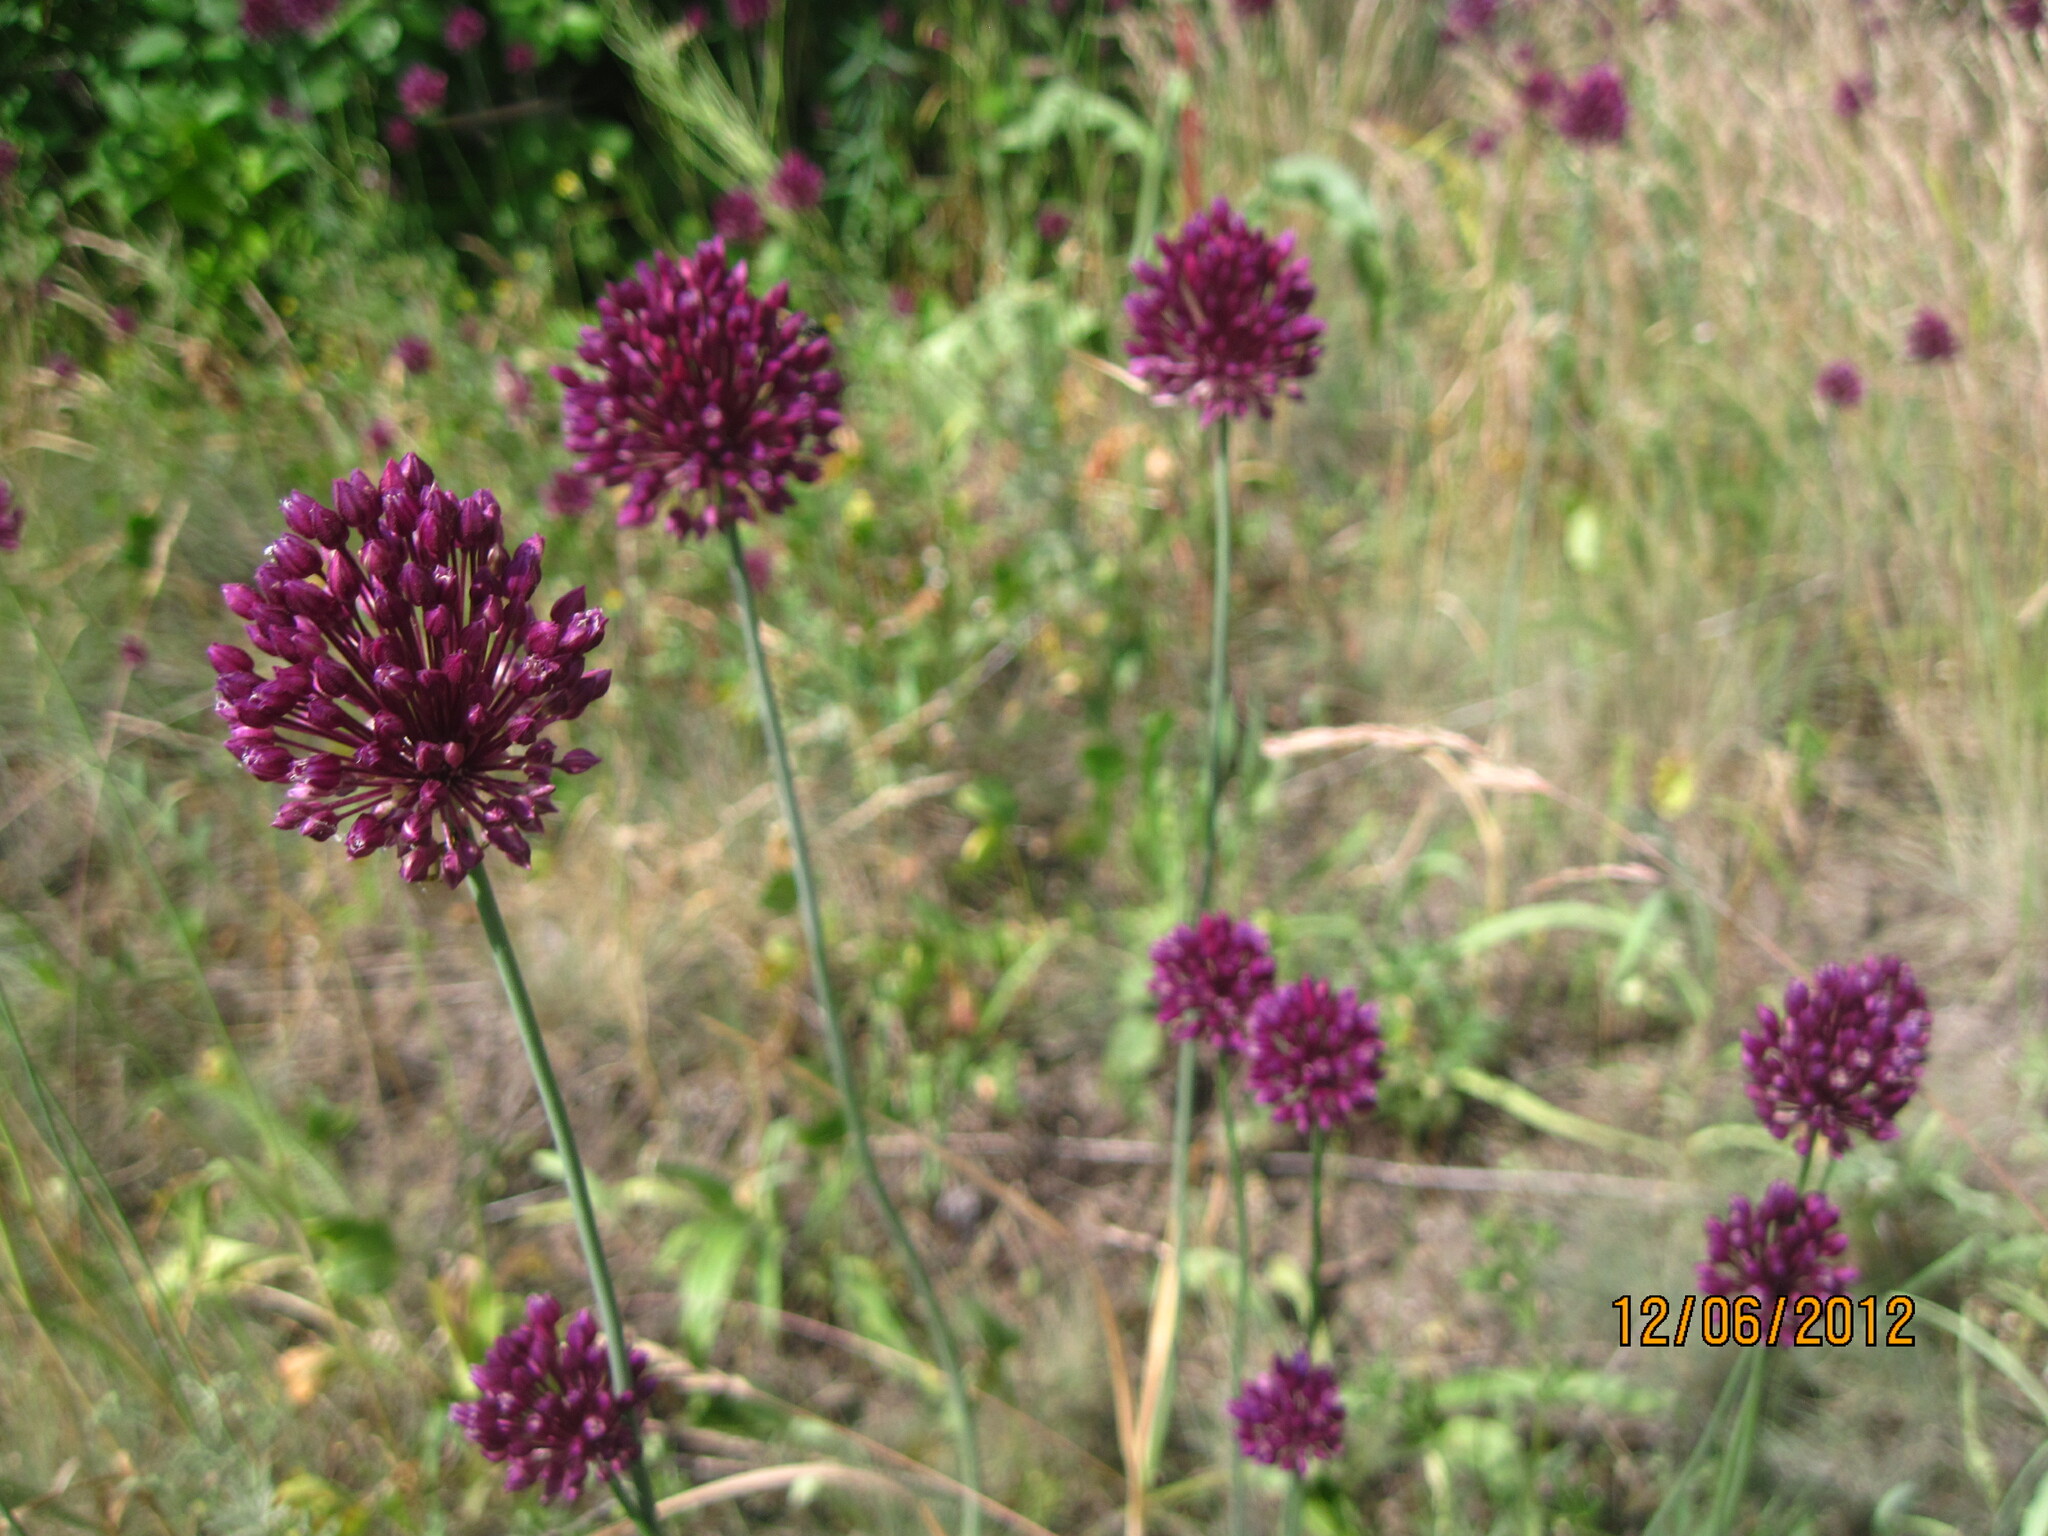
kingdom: Plantae
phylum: Tracheophyta
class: Liliopsida
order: Asparagales
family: Amaryllidaceae
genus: Allium
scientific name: Allium rotundum
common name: Sand leek
